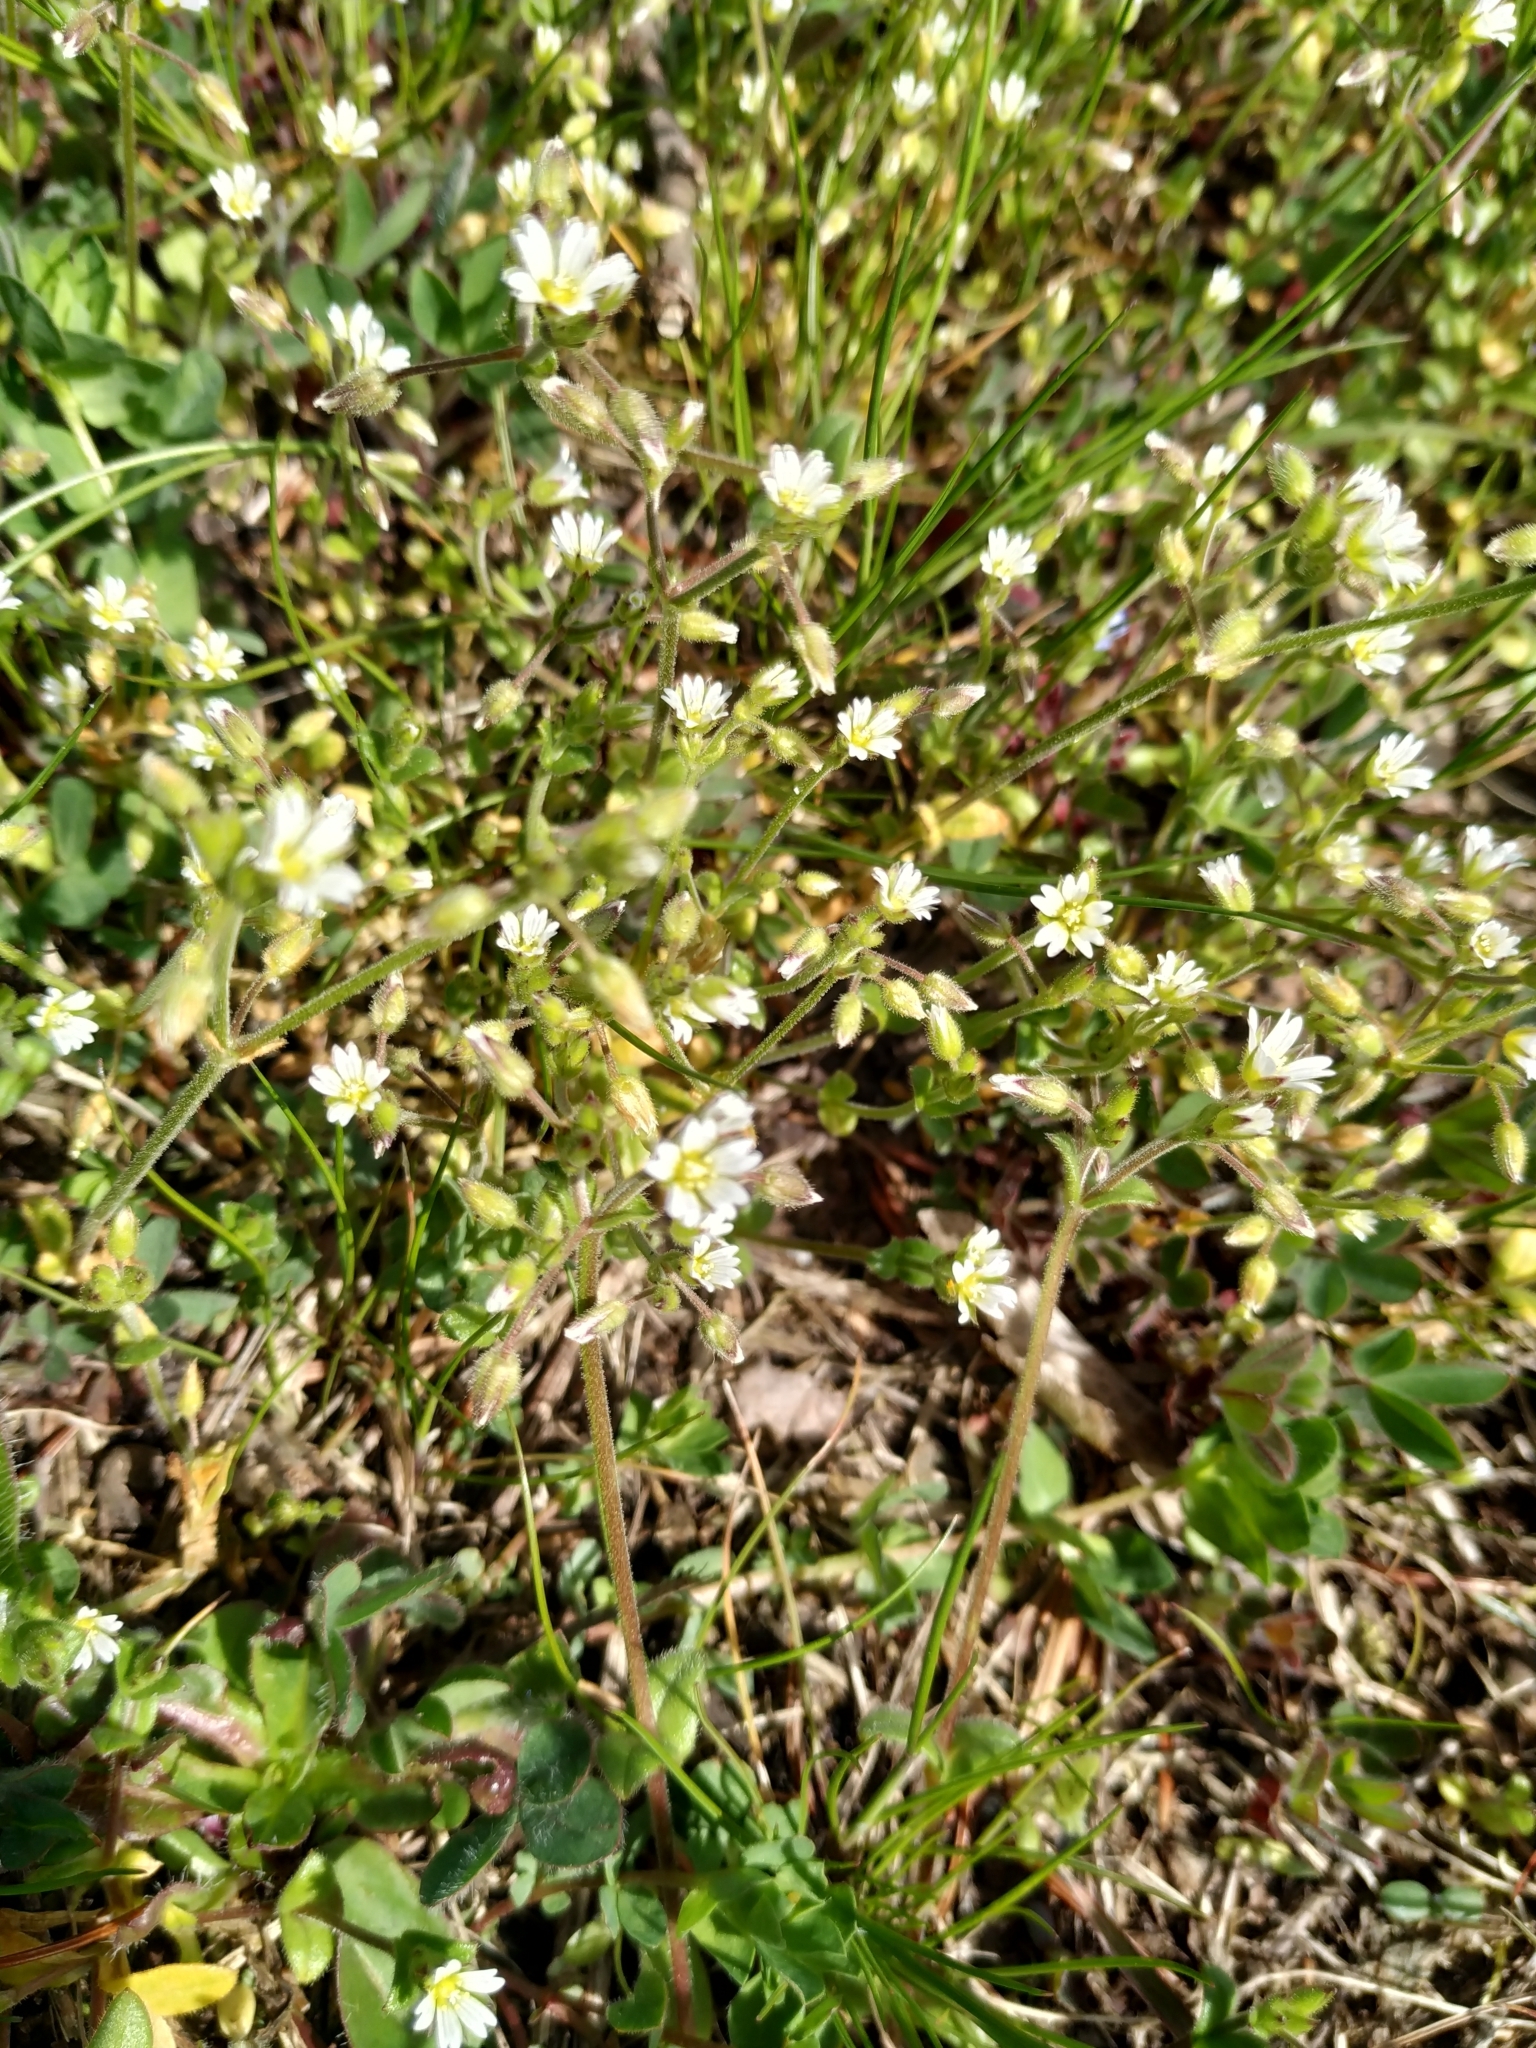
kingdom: Plantae
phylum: Tracheophyta
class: Magnoliopsida
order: Caryophyllales
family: Caryophyllaceae
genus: Cerastium
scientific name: Cerastium glutinosum
